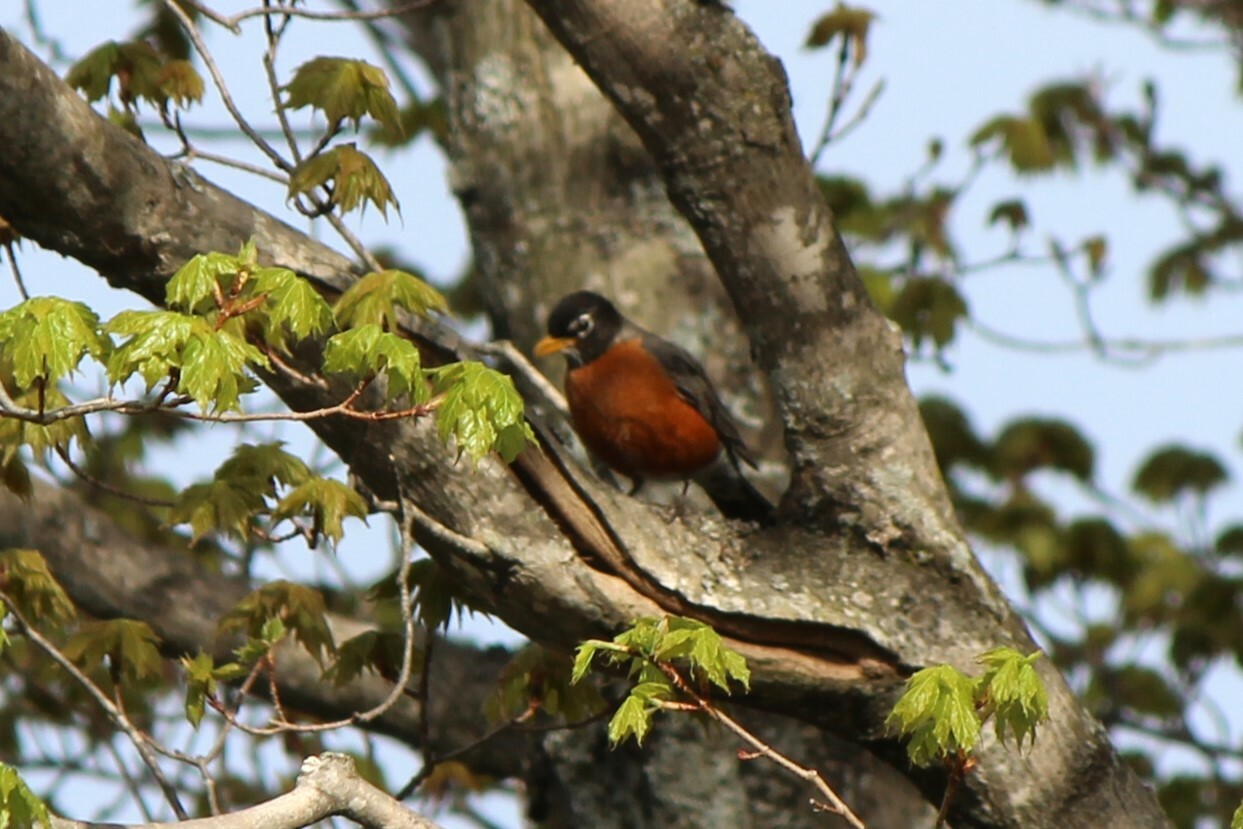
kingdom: Animalia
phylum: Chordata
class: Aves
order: Passeriformes
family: Turdidae
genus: Turdus
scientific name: Turdus migratorius
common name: American robin
